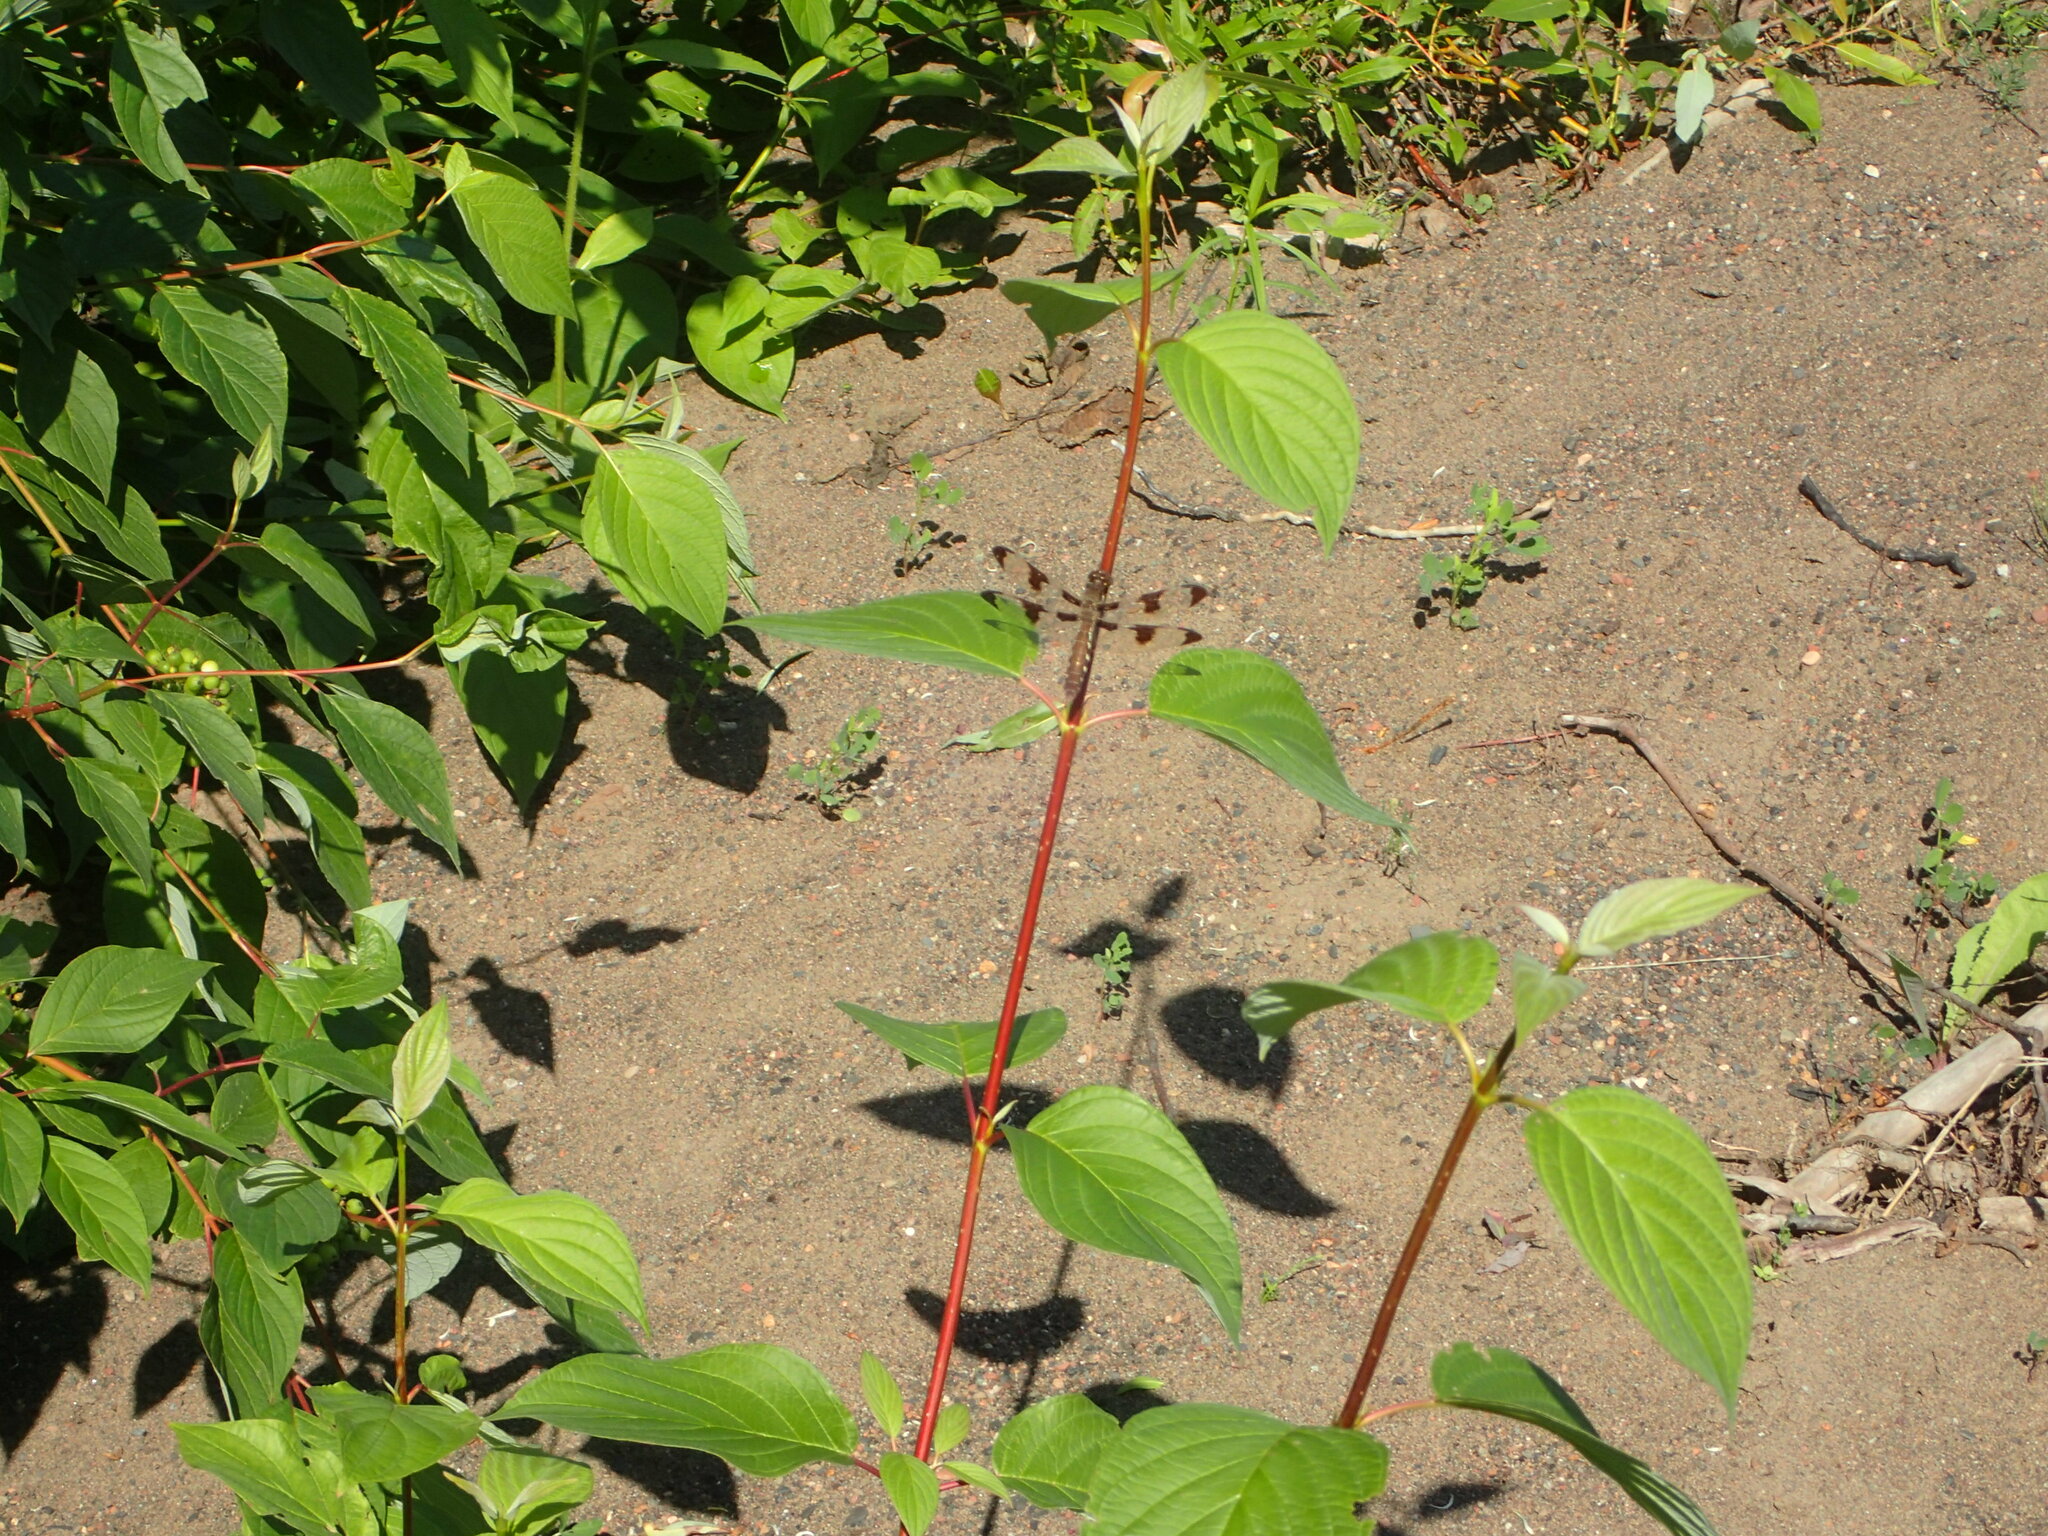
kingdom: Animalia
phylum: Arthropoda
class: Insecta
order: Odonata
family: Libellulidae
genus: Plathemis
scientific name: Plathemis lydia
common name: Common whitetail
